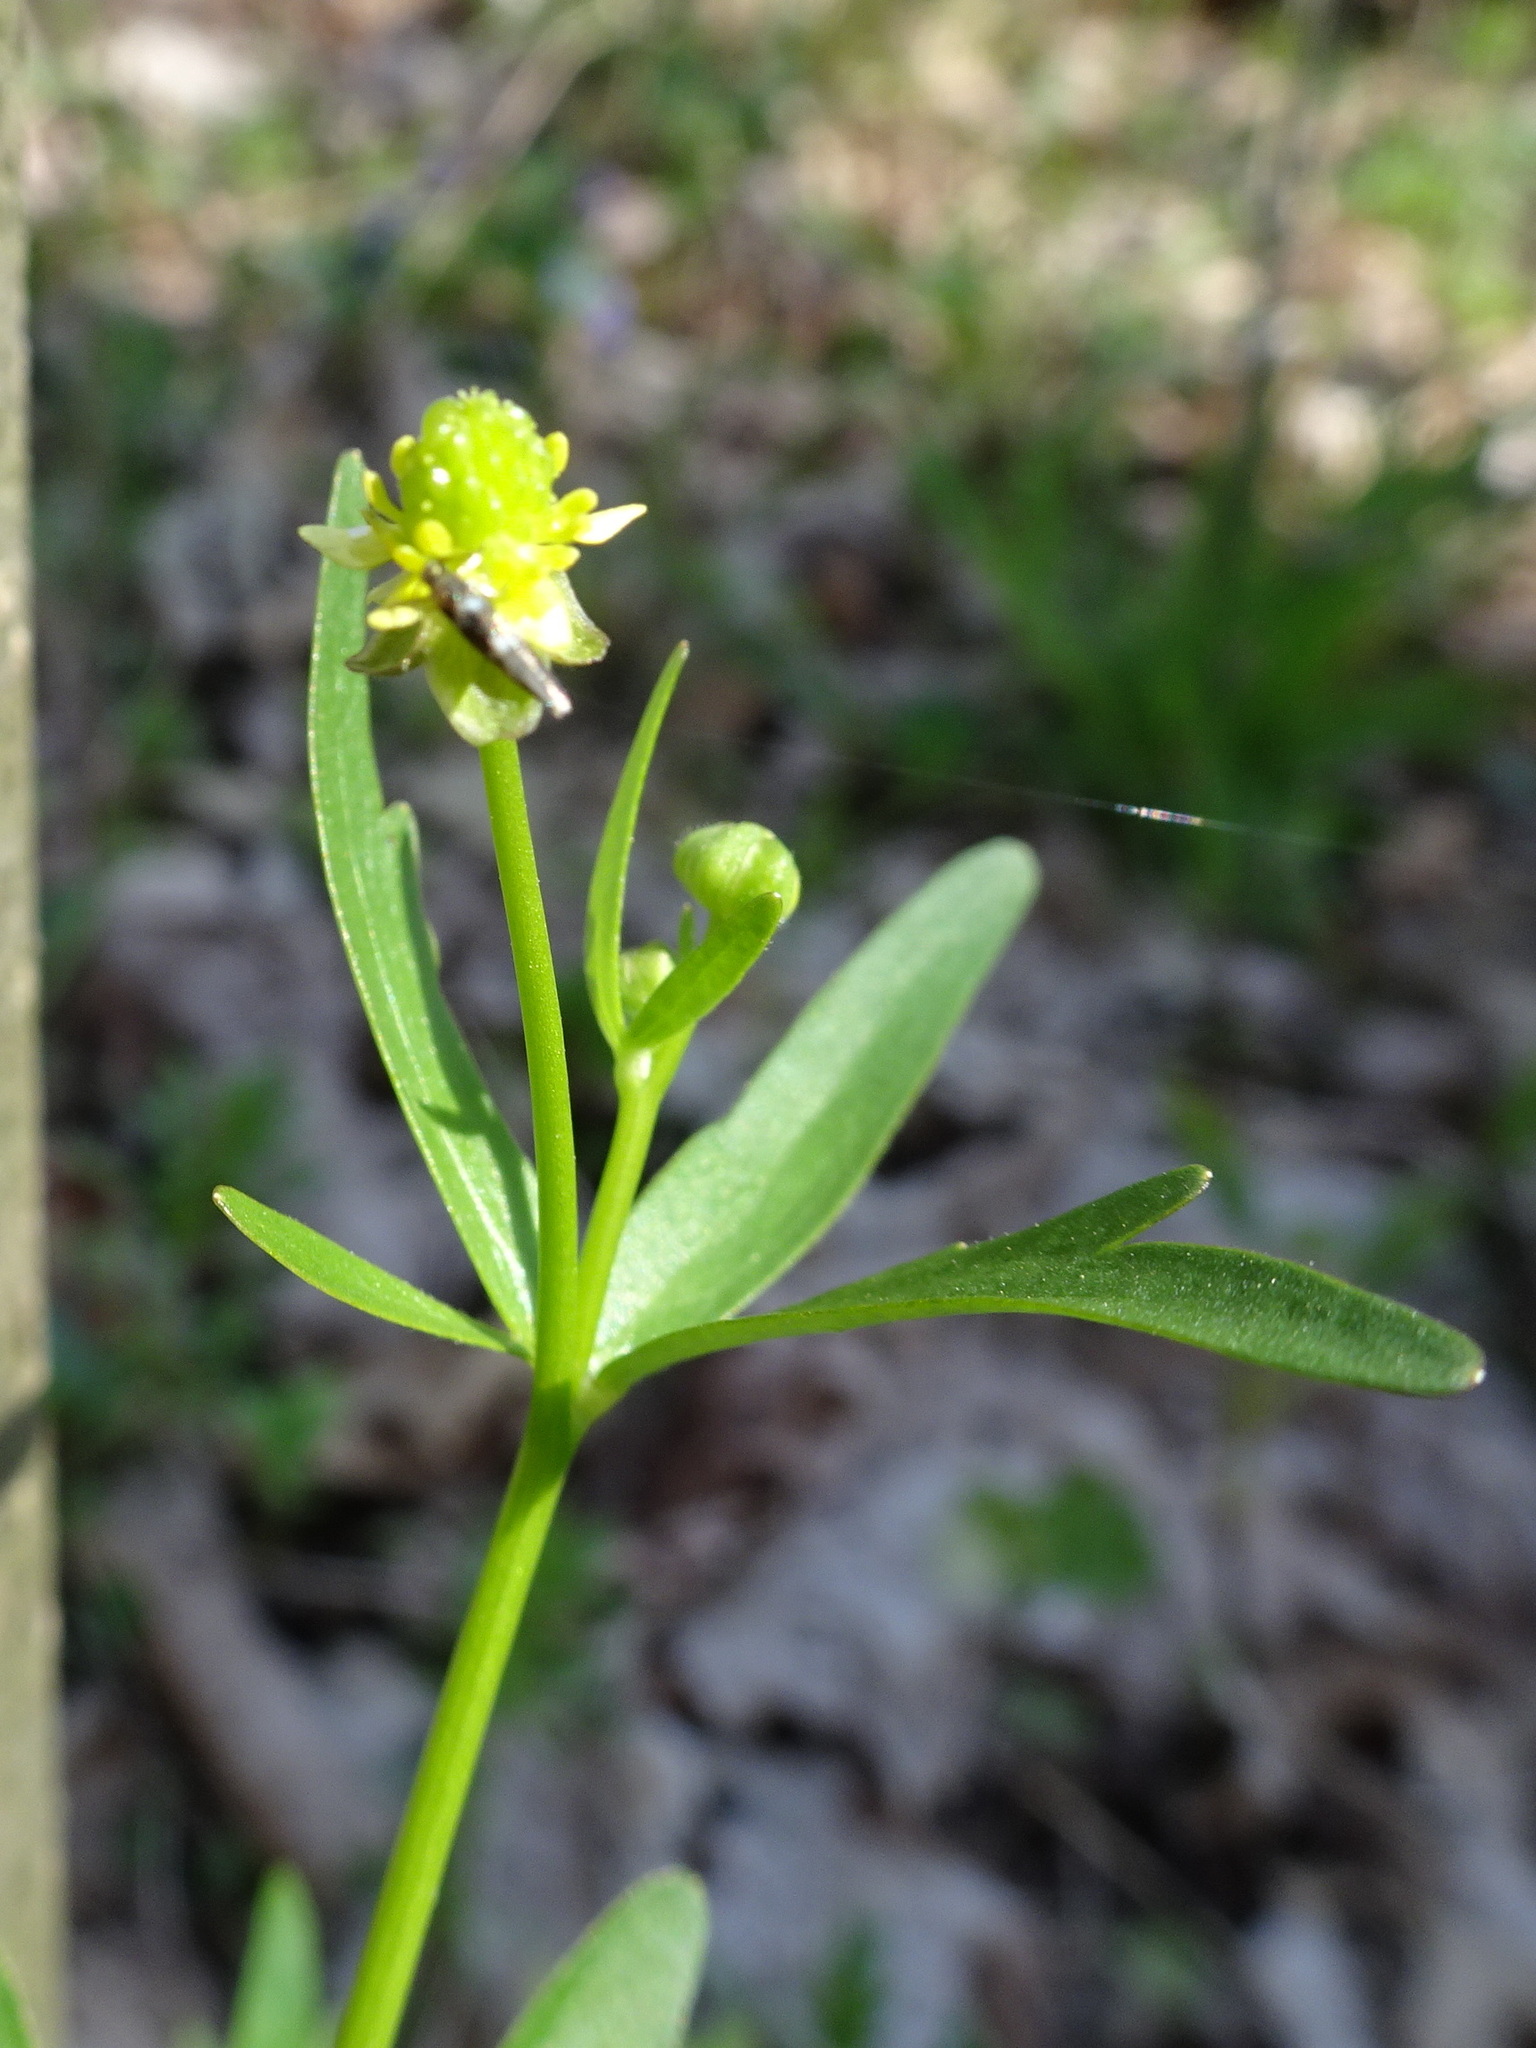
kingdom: Plantae
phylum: Tracheophyta
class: Magnoliopsida
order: Ranunculales
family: Ranunculaceae
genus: Ranunculus
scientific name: Ranunculus abortivus
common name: Early wood buttercup
